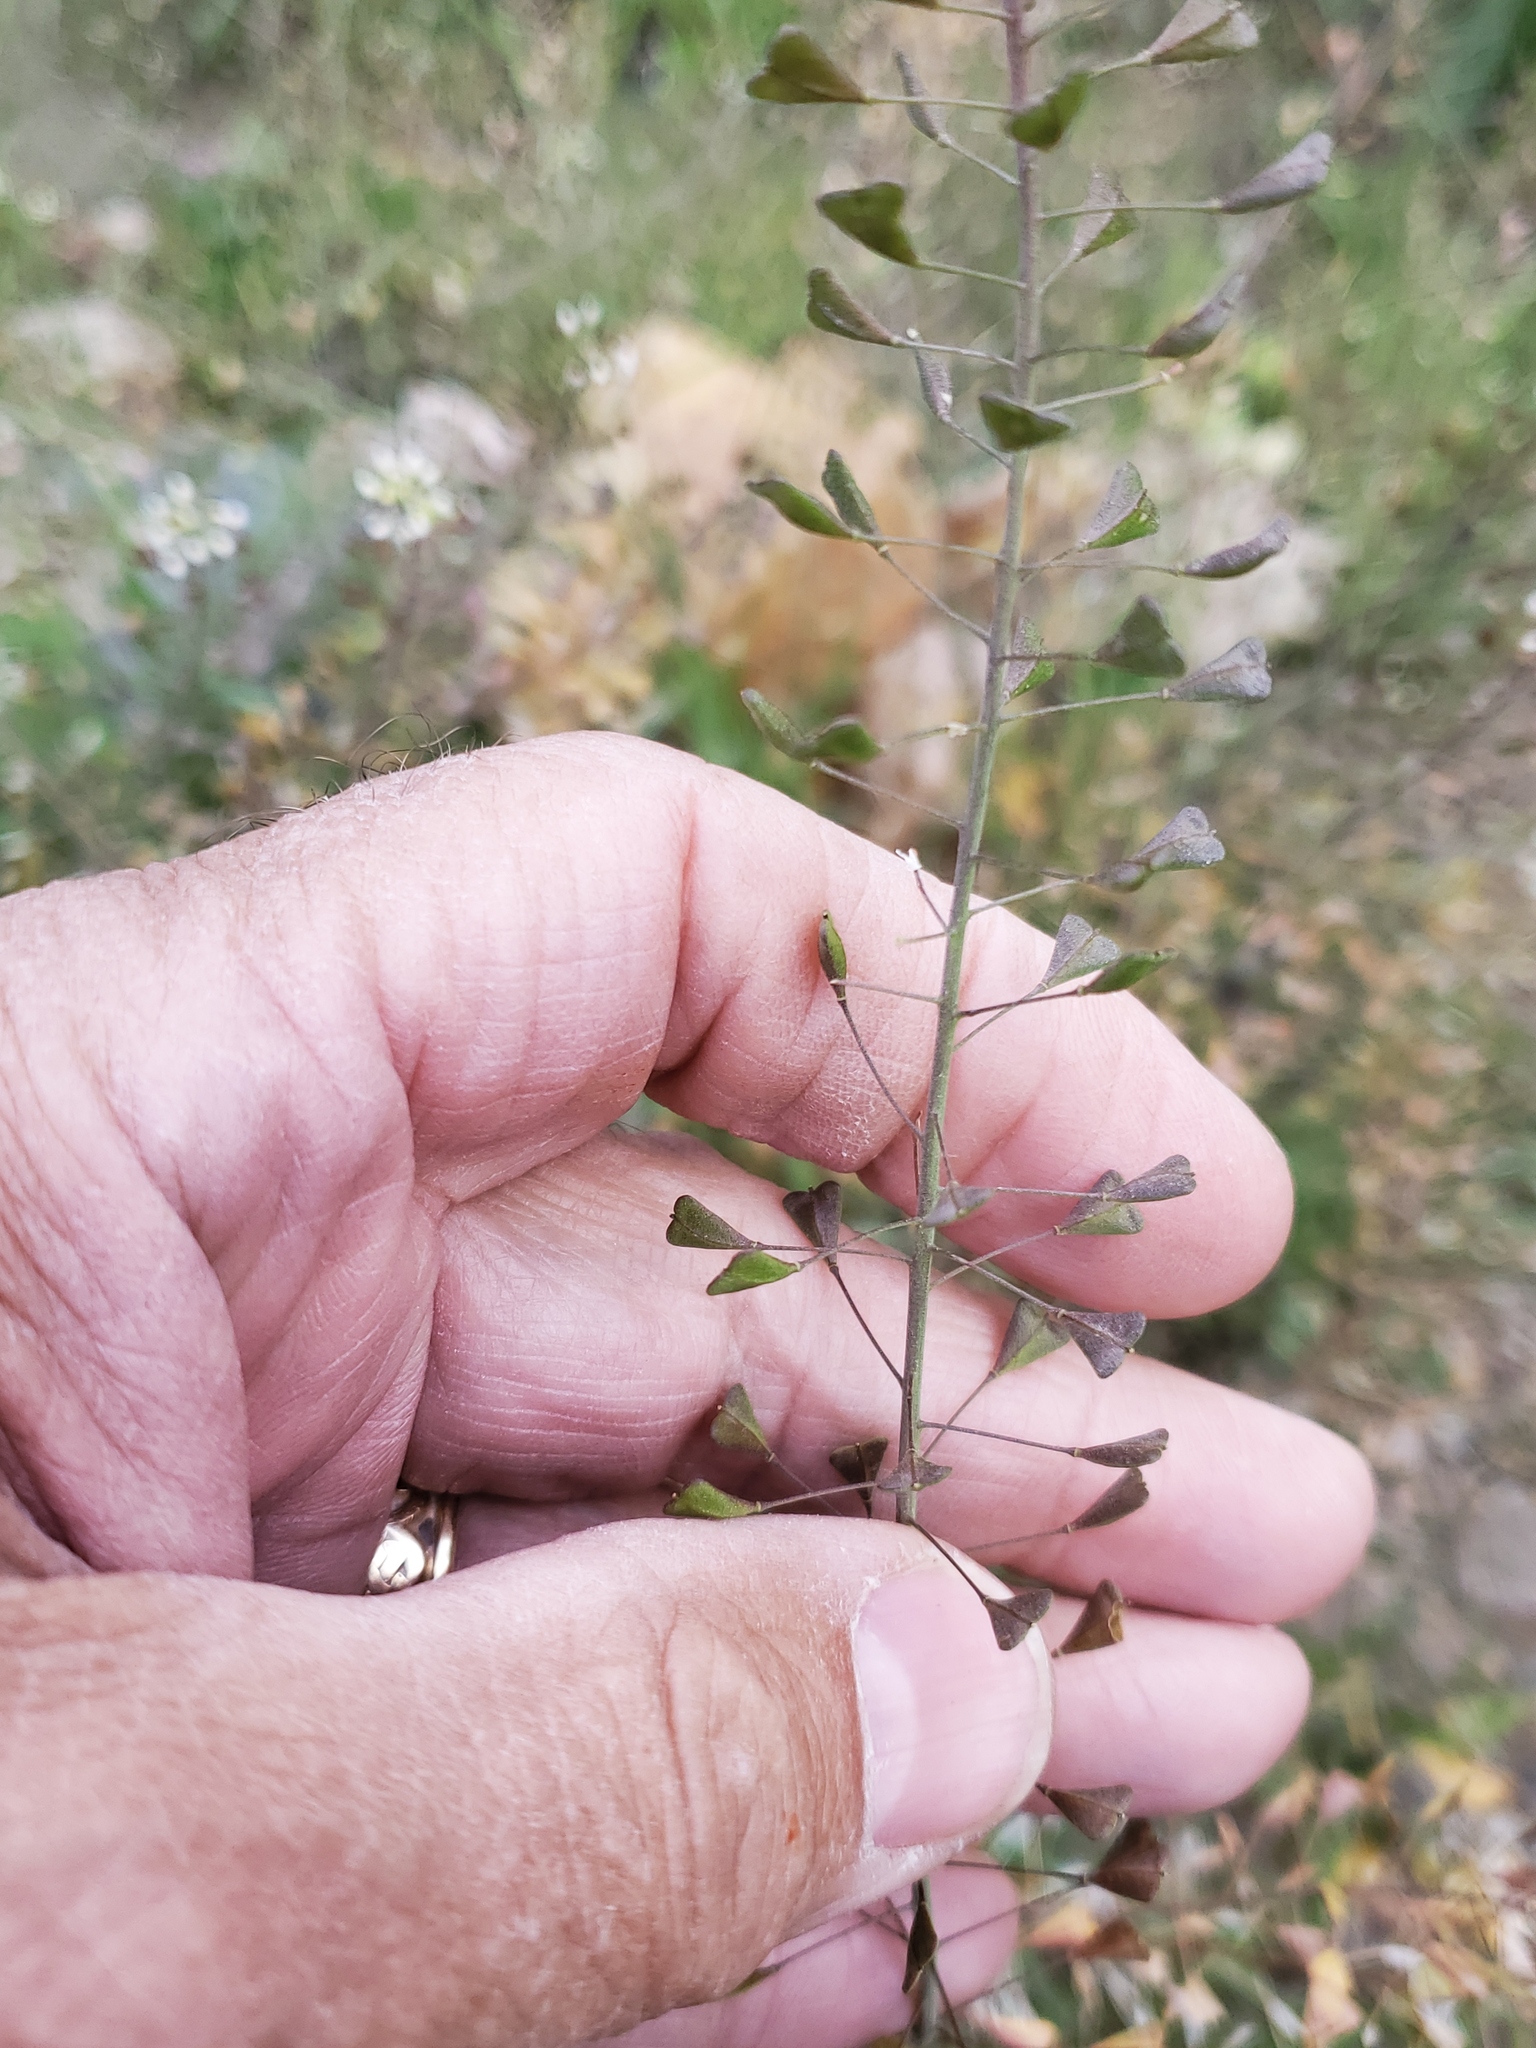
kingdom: Plantae
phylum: Tracheophyta
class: Magnoliopsida
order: Brassicales
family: Brassicaceae
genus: Capsella
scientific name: Capsella bursa-pastoris
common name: Shepherd's purse
